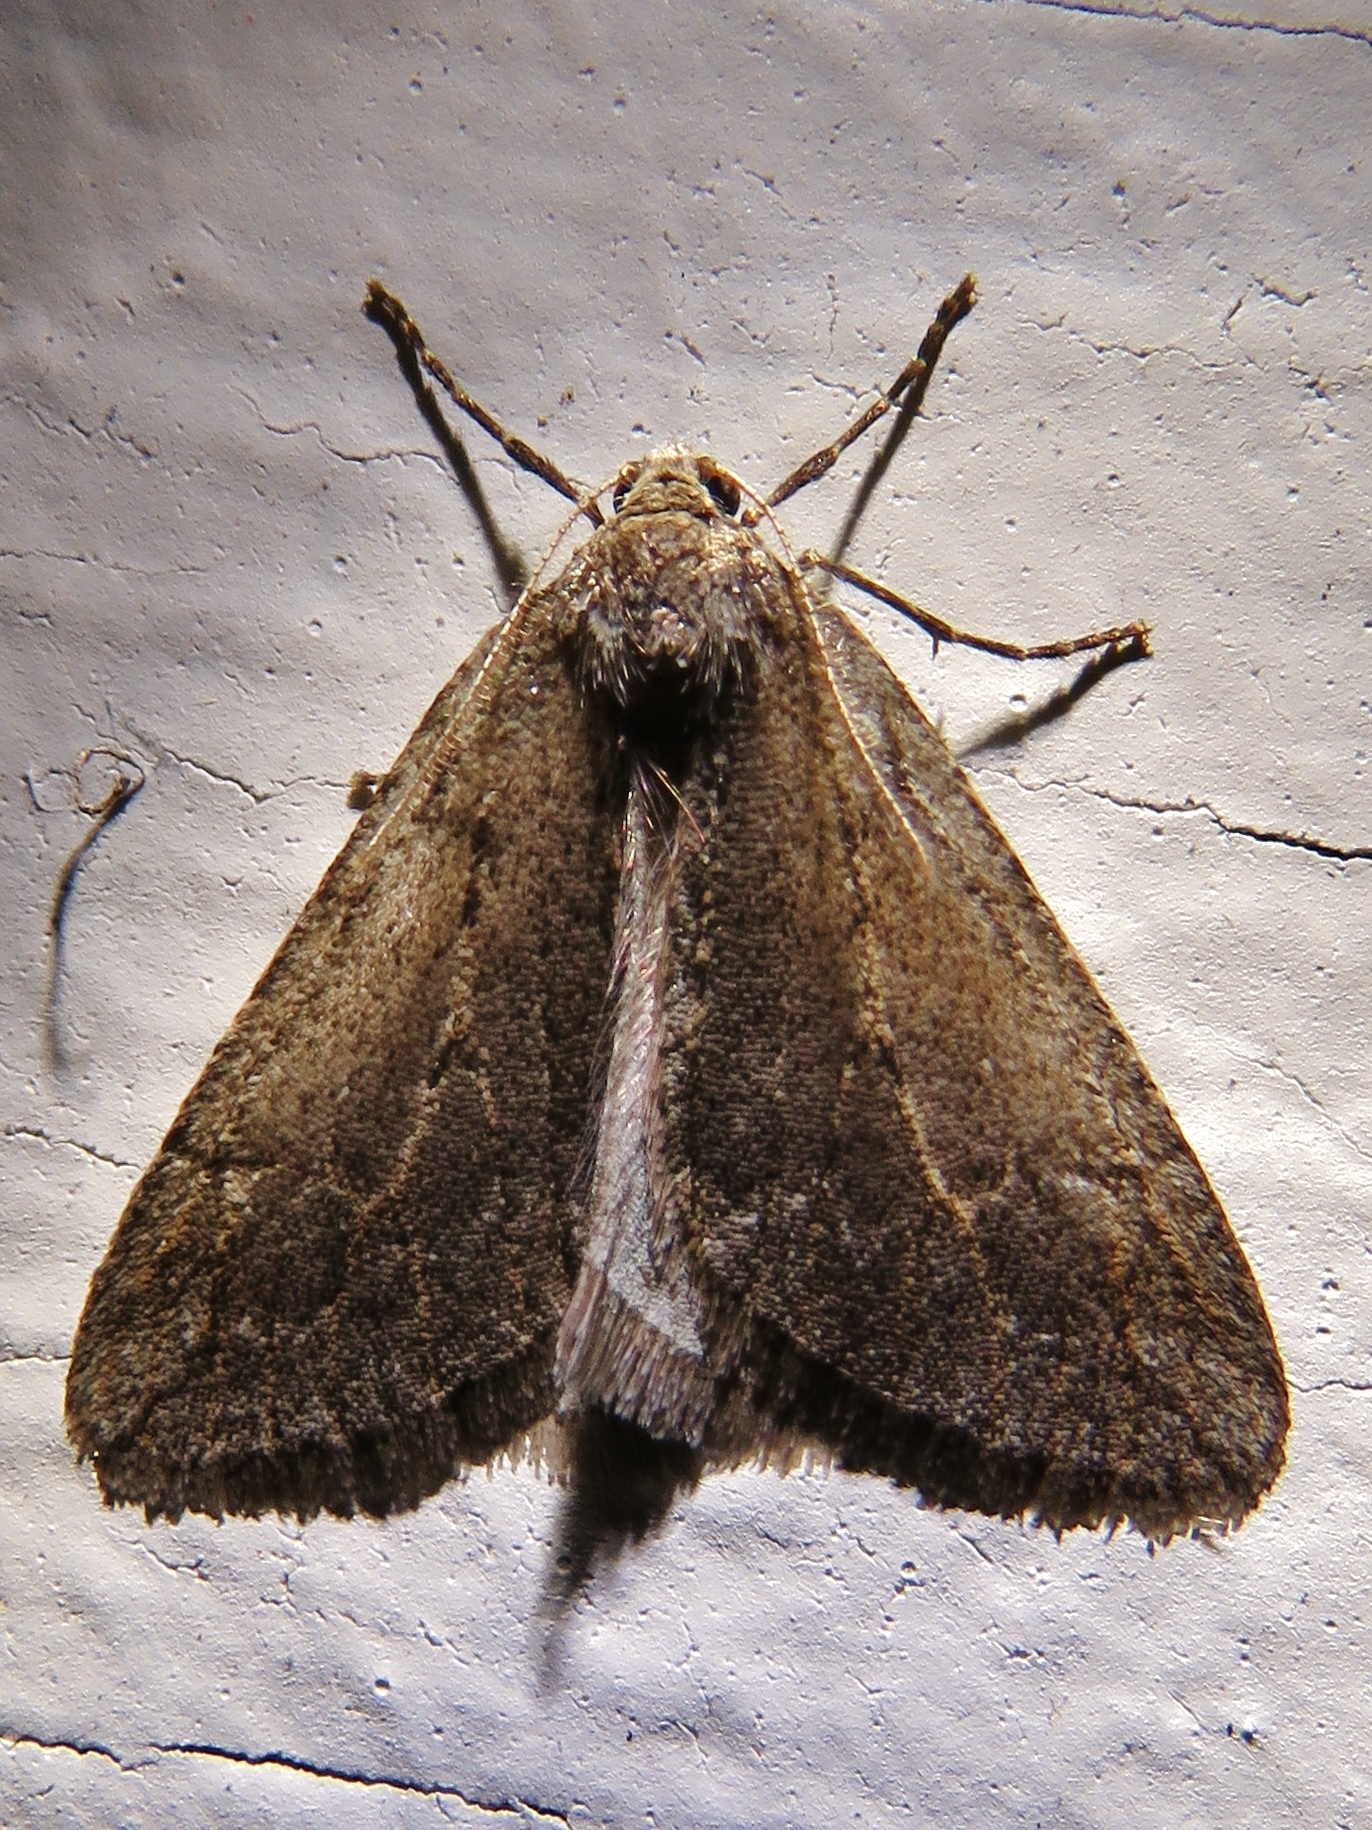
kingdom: Animalia
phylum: Arthropoda
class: Insecta
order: Lepidoptera
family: Geometridae
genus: Paleacrita
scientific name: Paleacrita vernata
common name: Spring cankerworm
